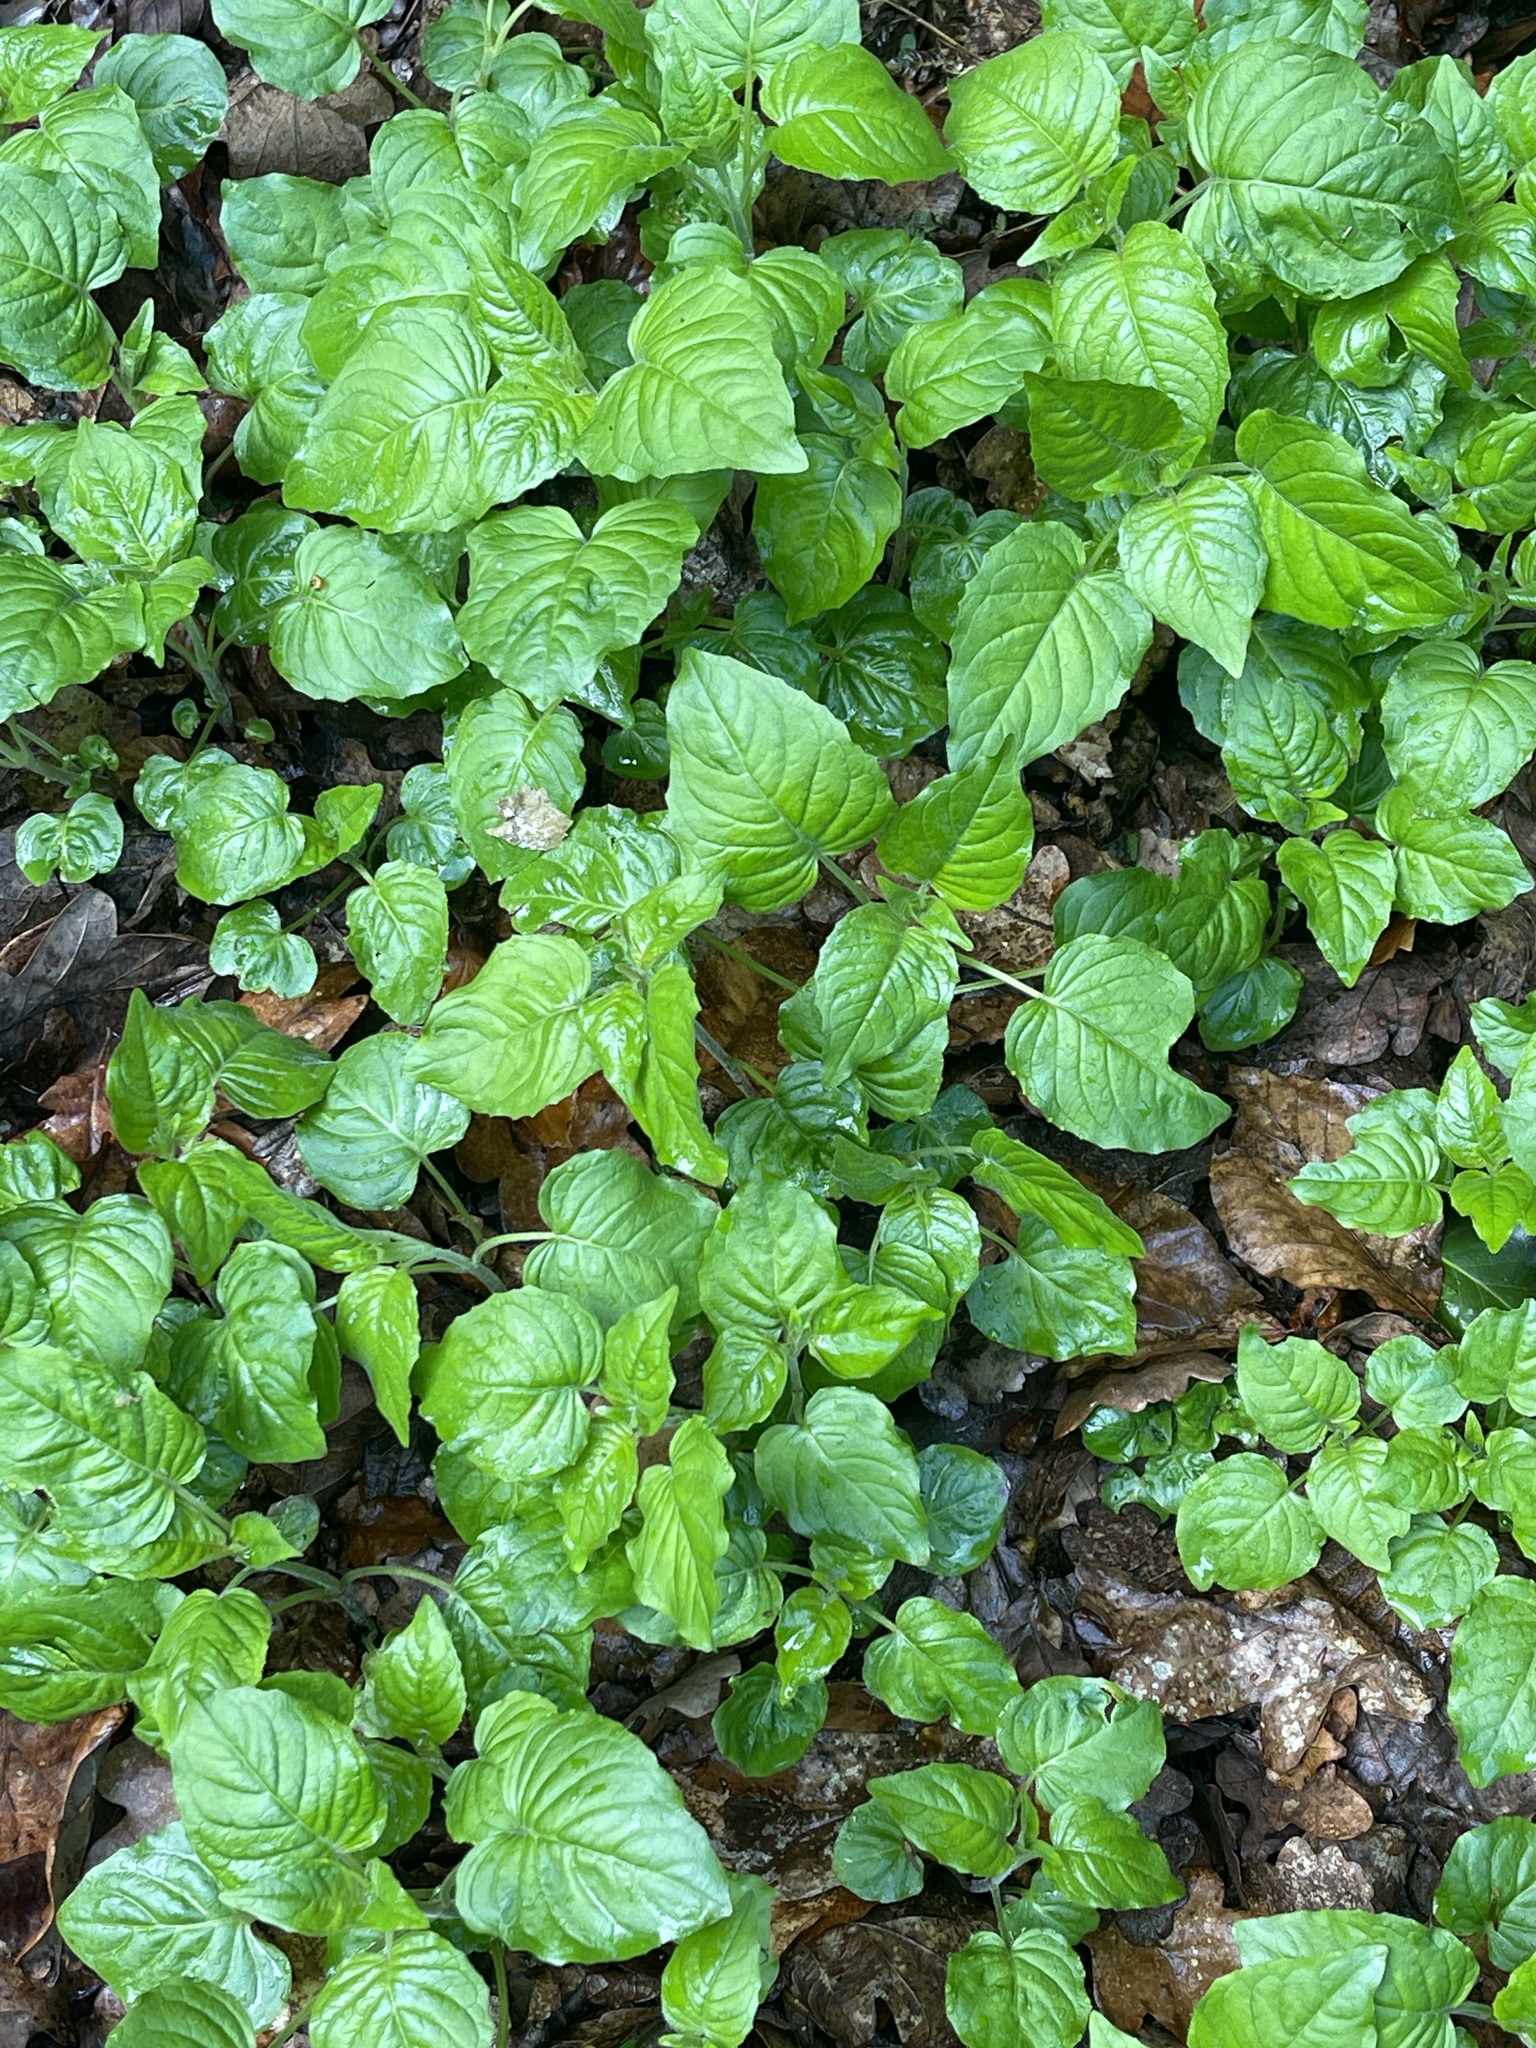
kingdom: Plantae
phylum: Tracheophyta
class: Magnoliopsida
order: Myrtales
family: Onagraceae
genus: Circaea
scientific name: Circaea lutetiana
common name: Enchanter's-nightshade
